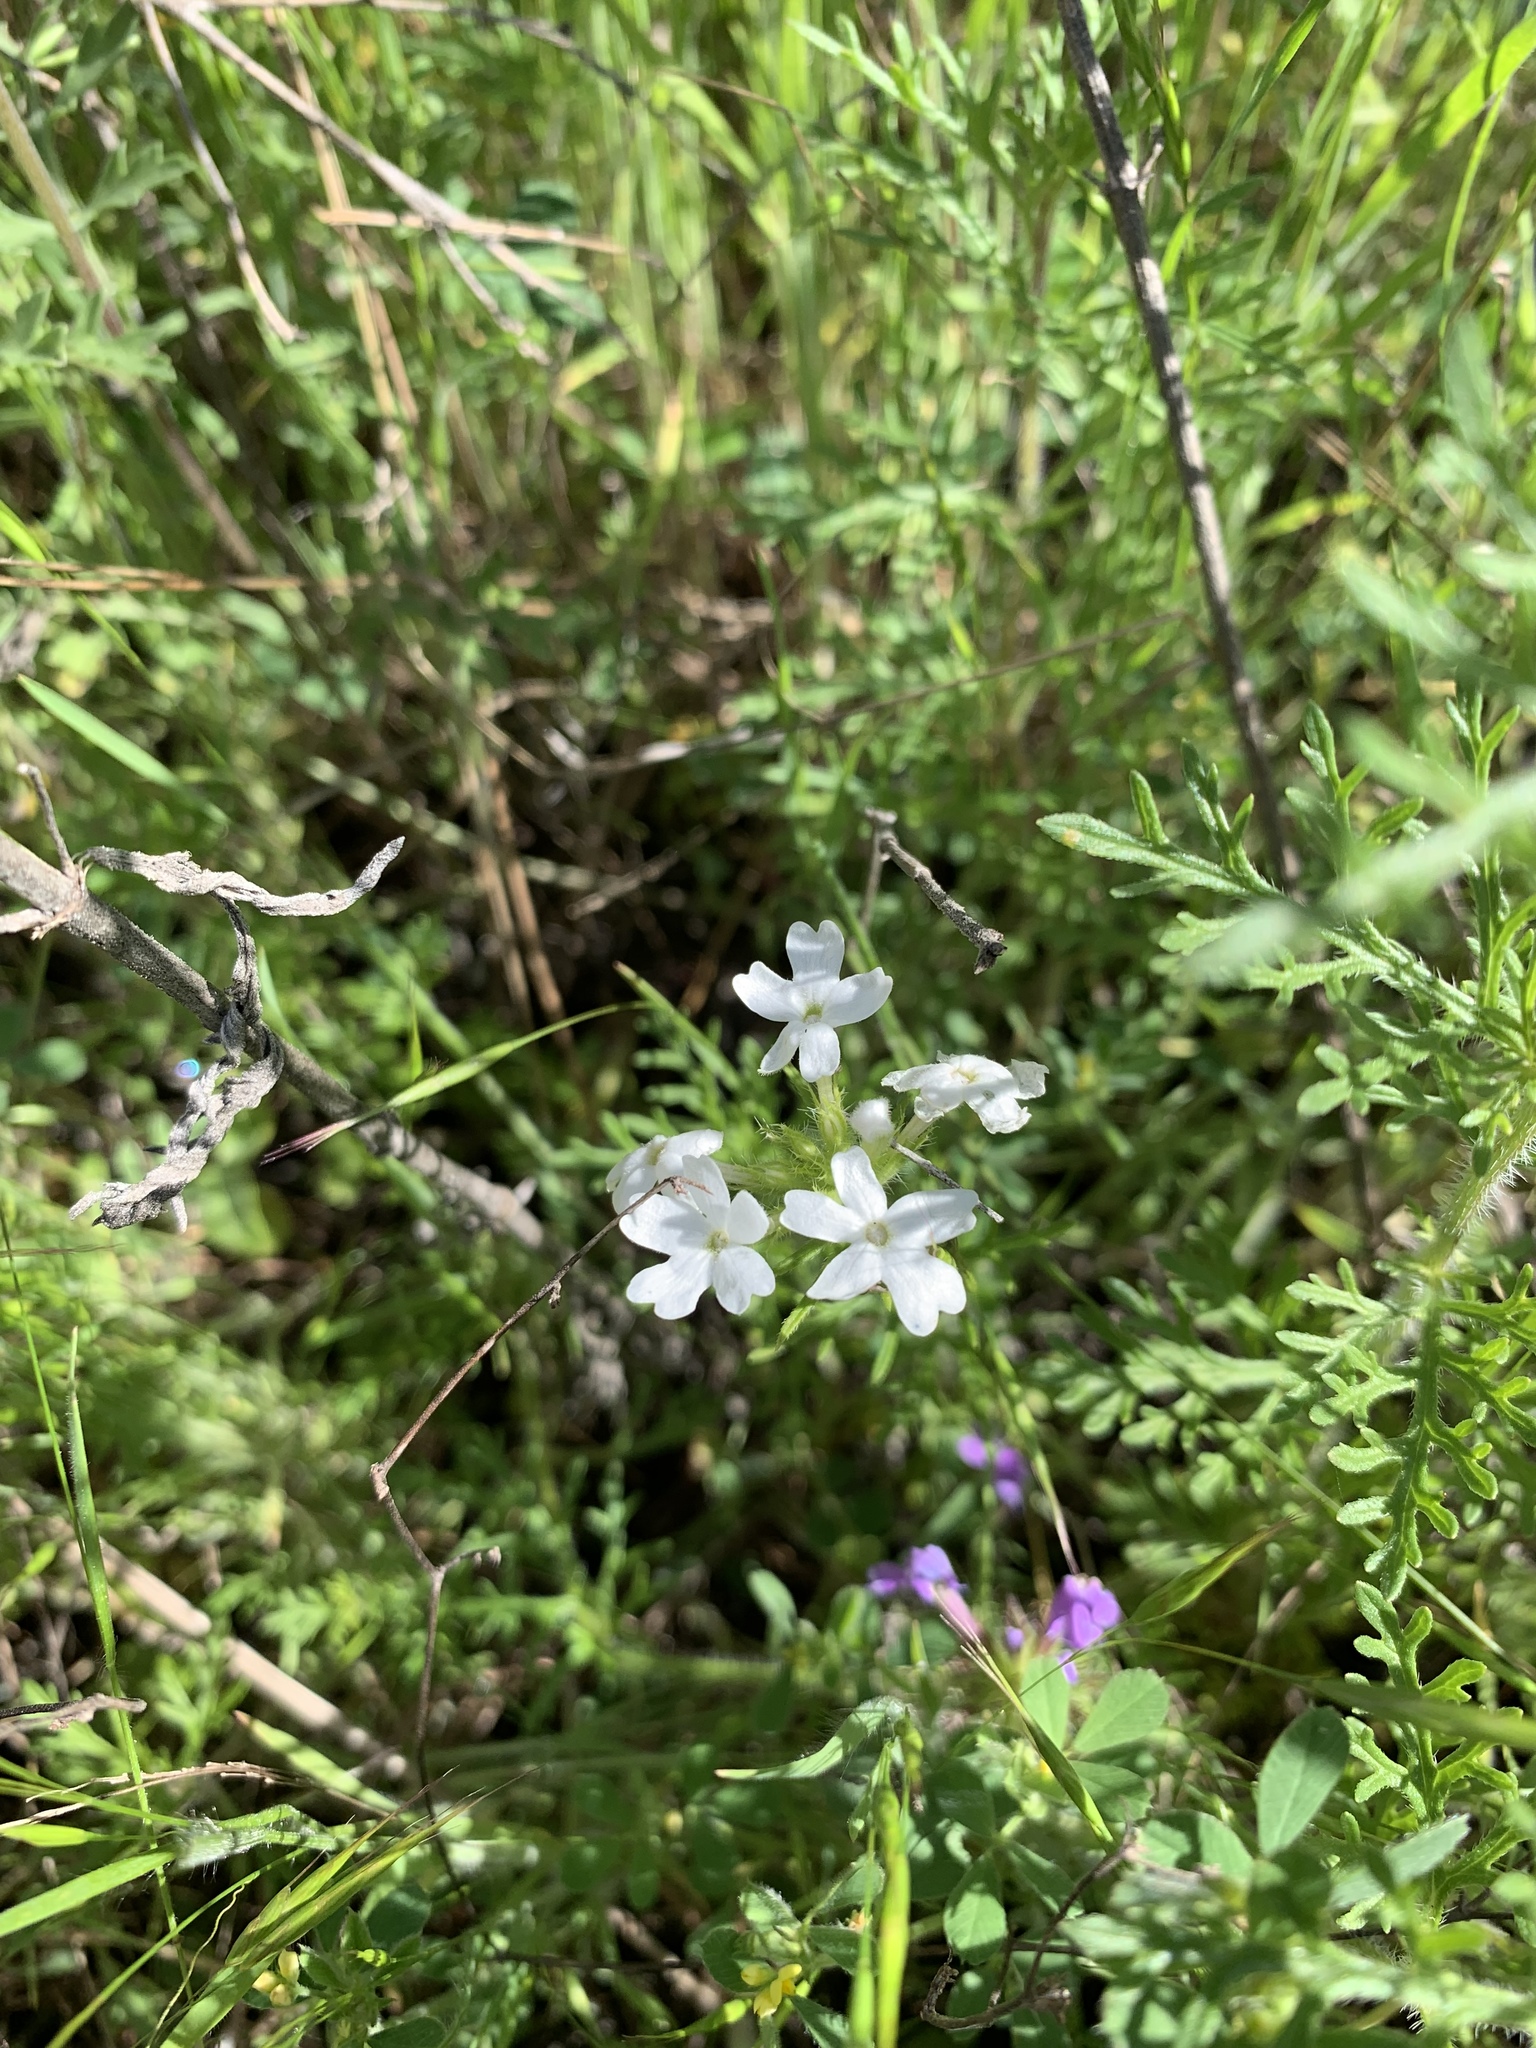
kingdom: Plantae
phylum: Tracheophyta
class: Magnoliopsida
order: Lamiales
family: Verbenaceae
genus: Verbena
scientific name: Verbena bipinnatifida
